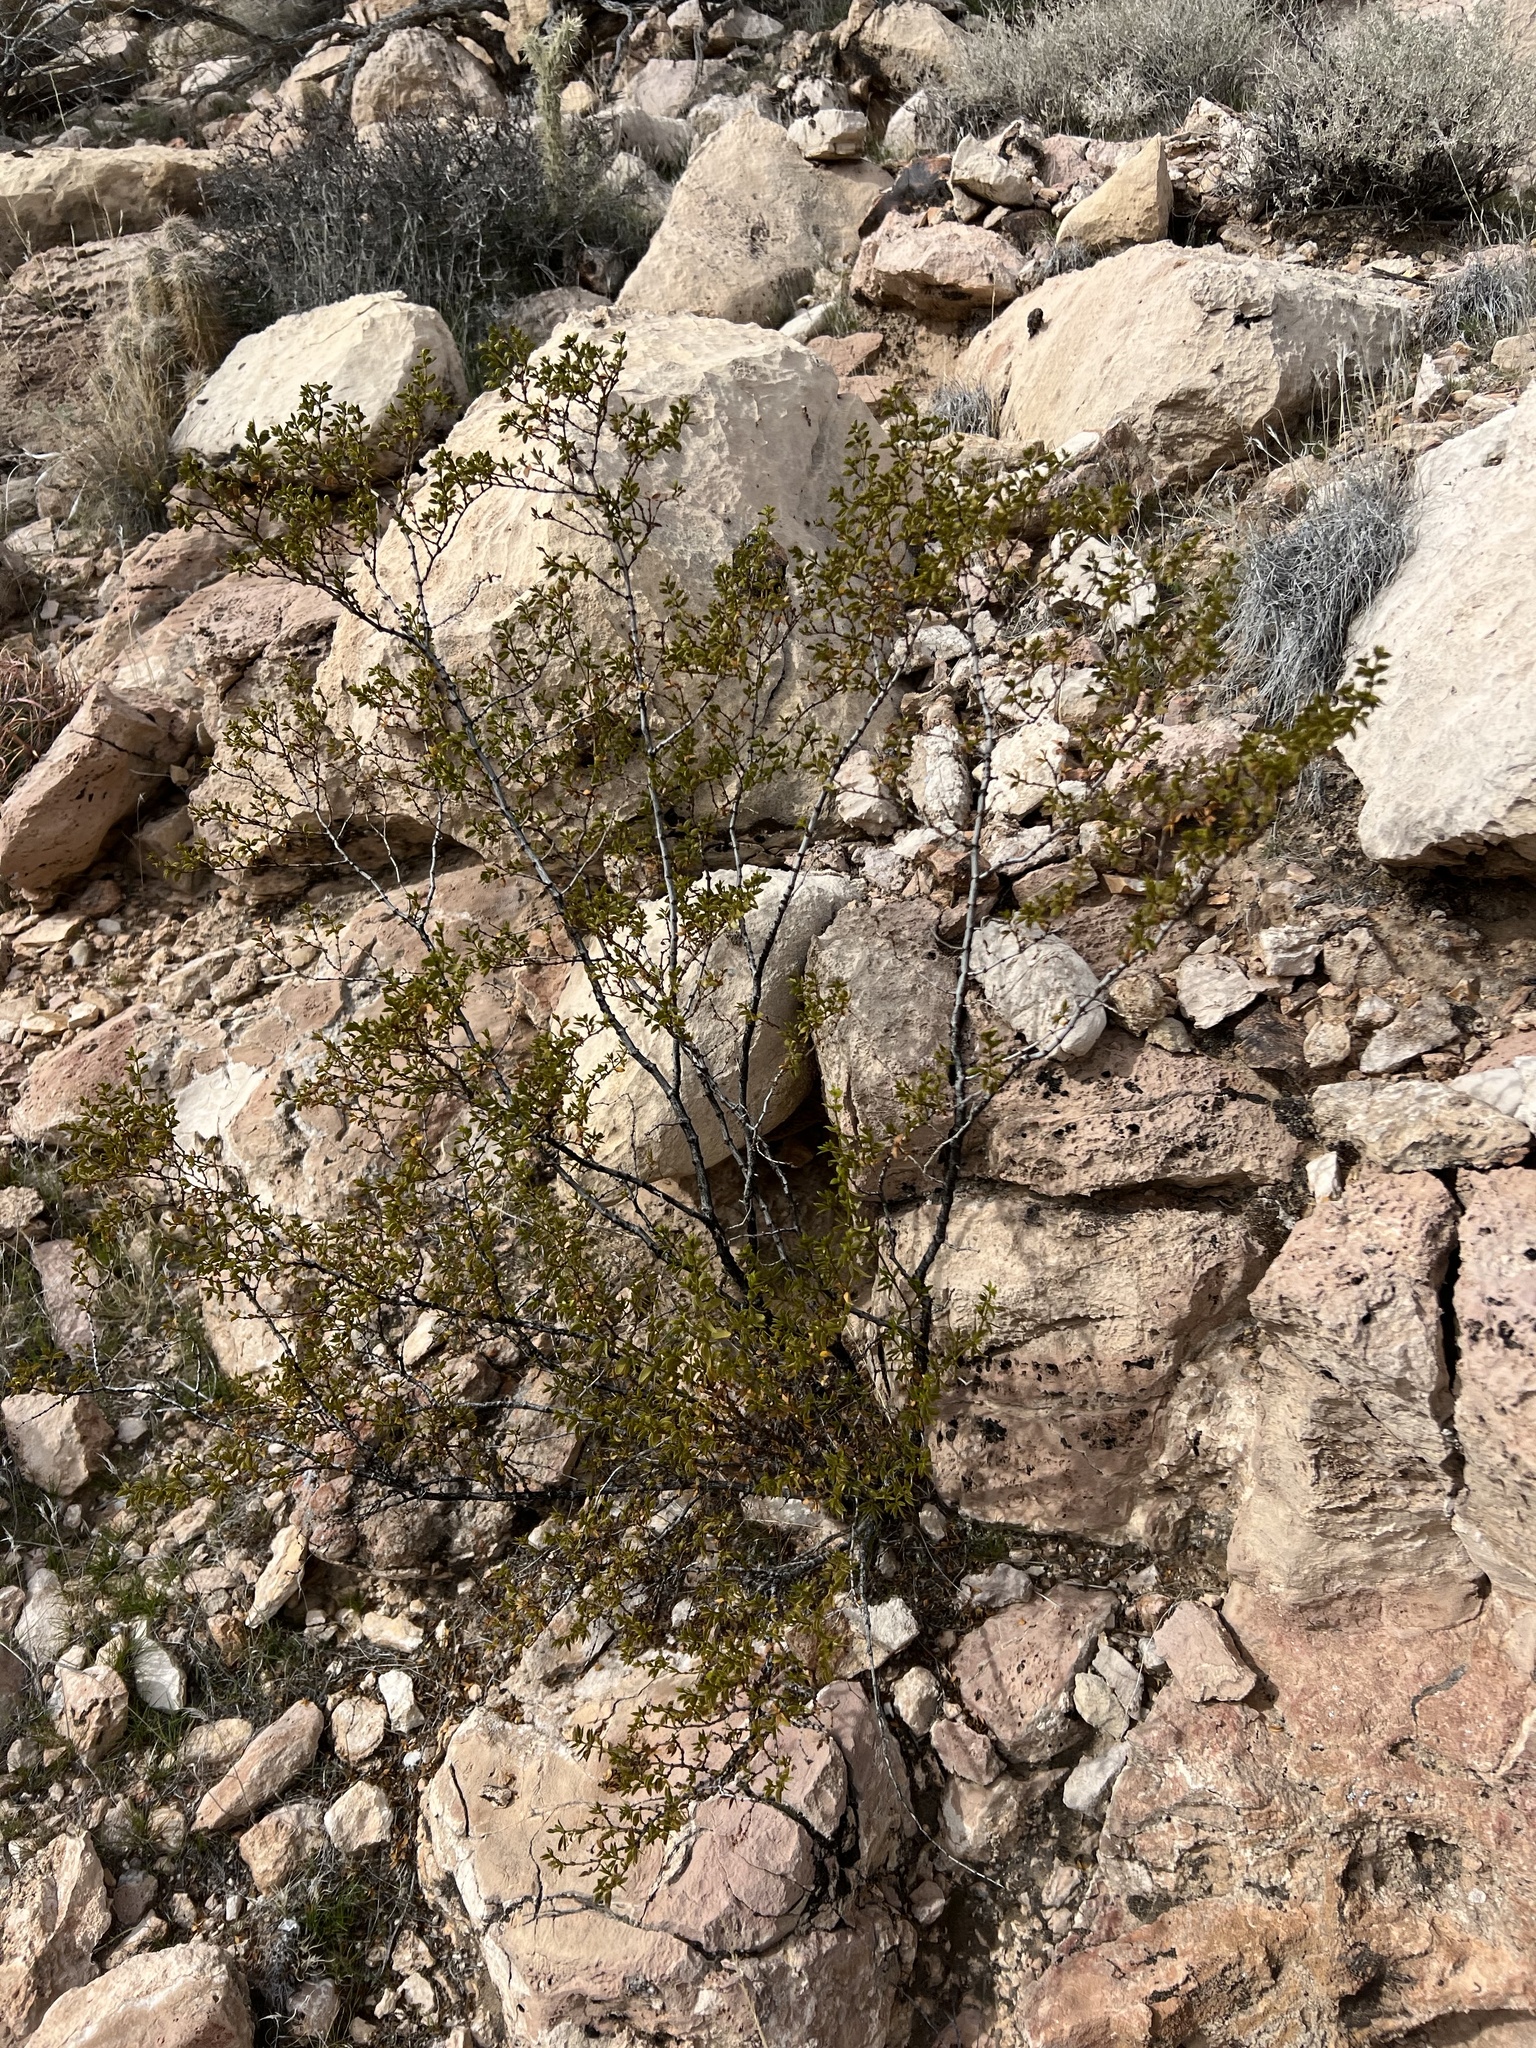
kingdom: Plantae
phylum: Tracheophyta
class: Magnoliopsida
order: Zygophyllales
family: Zygophyllaceae
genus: Larrea
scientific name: Larrea tridentata
